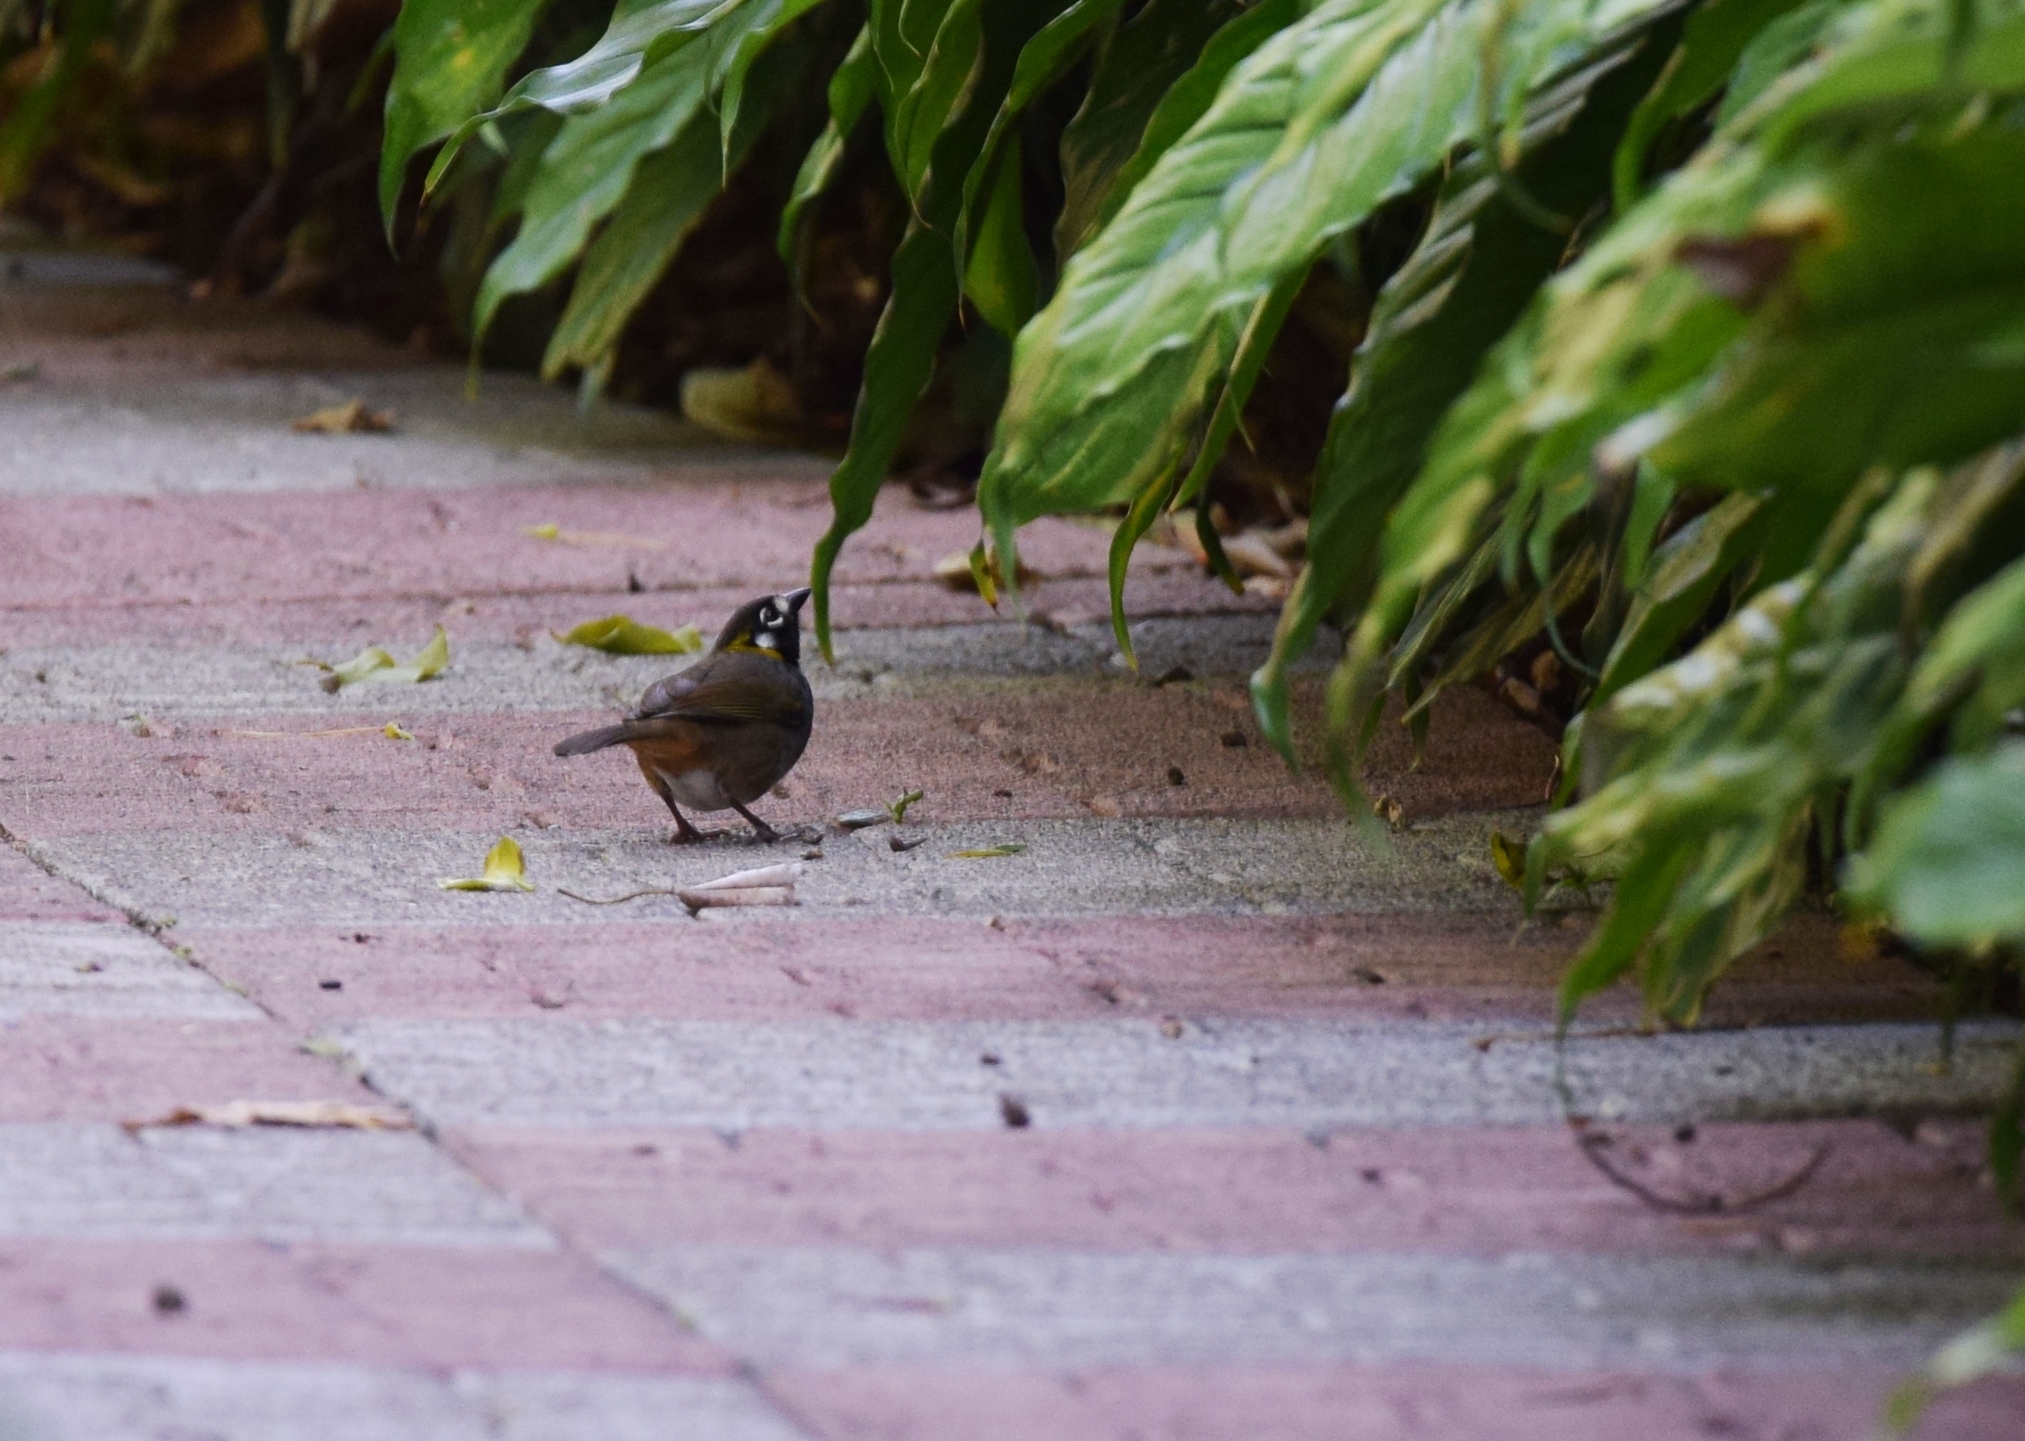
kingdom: Animalia
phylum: Chordata
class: Aves
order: Passeriformes
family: Passerellidae
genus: Melozone
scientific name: Melozone leucotis
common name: White-eared ground-sparrow
